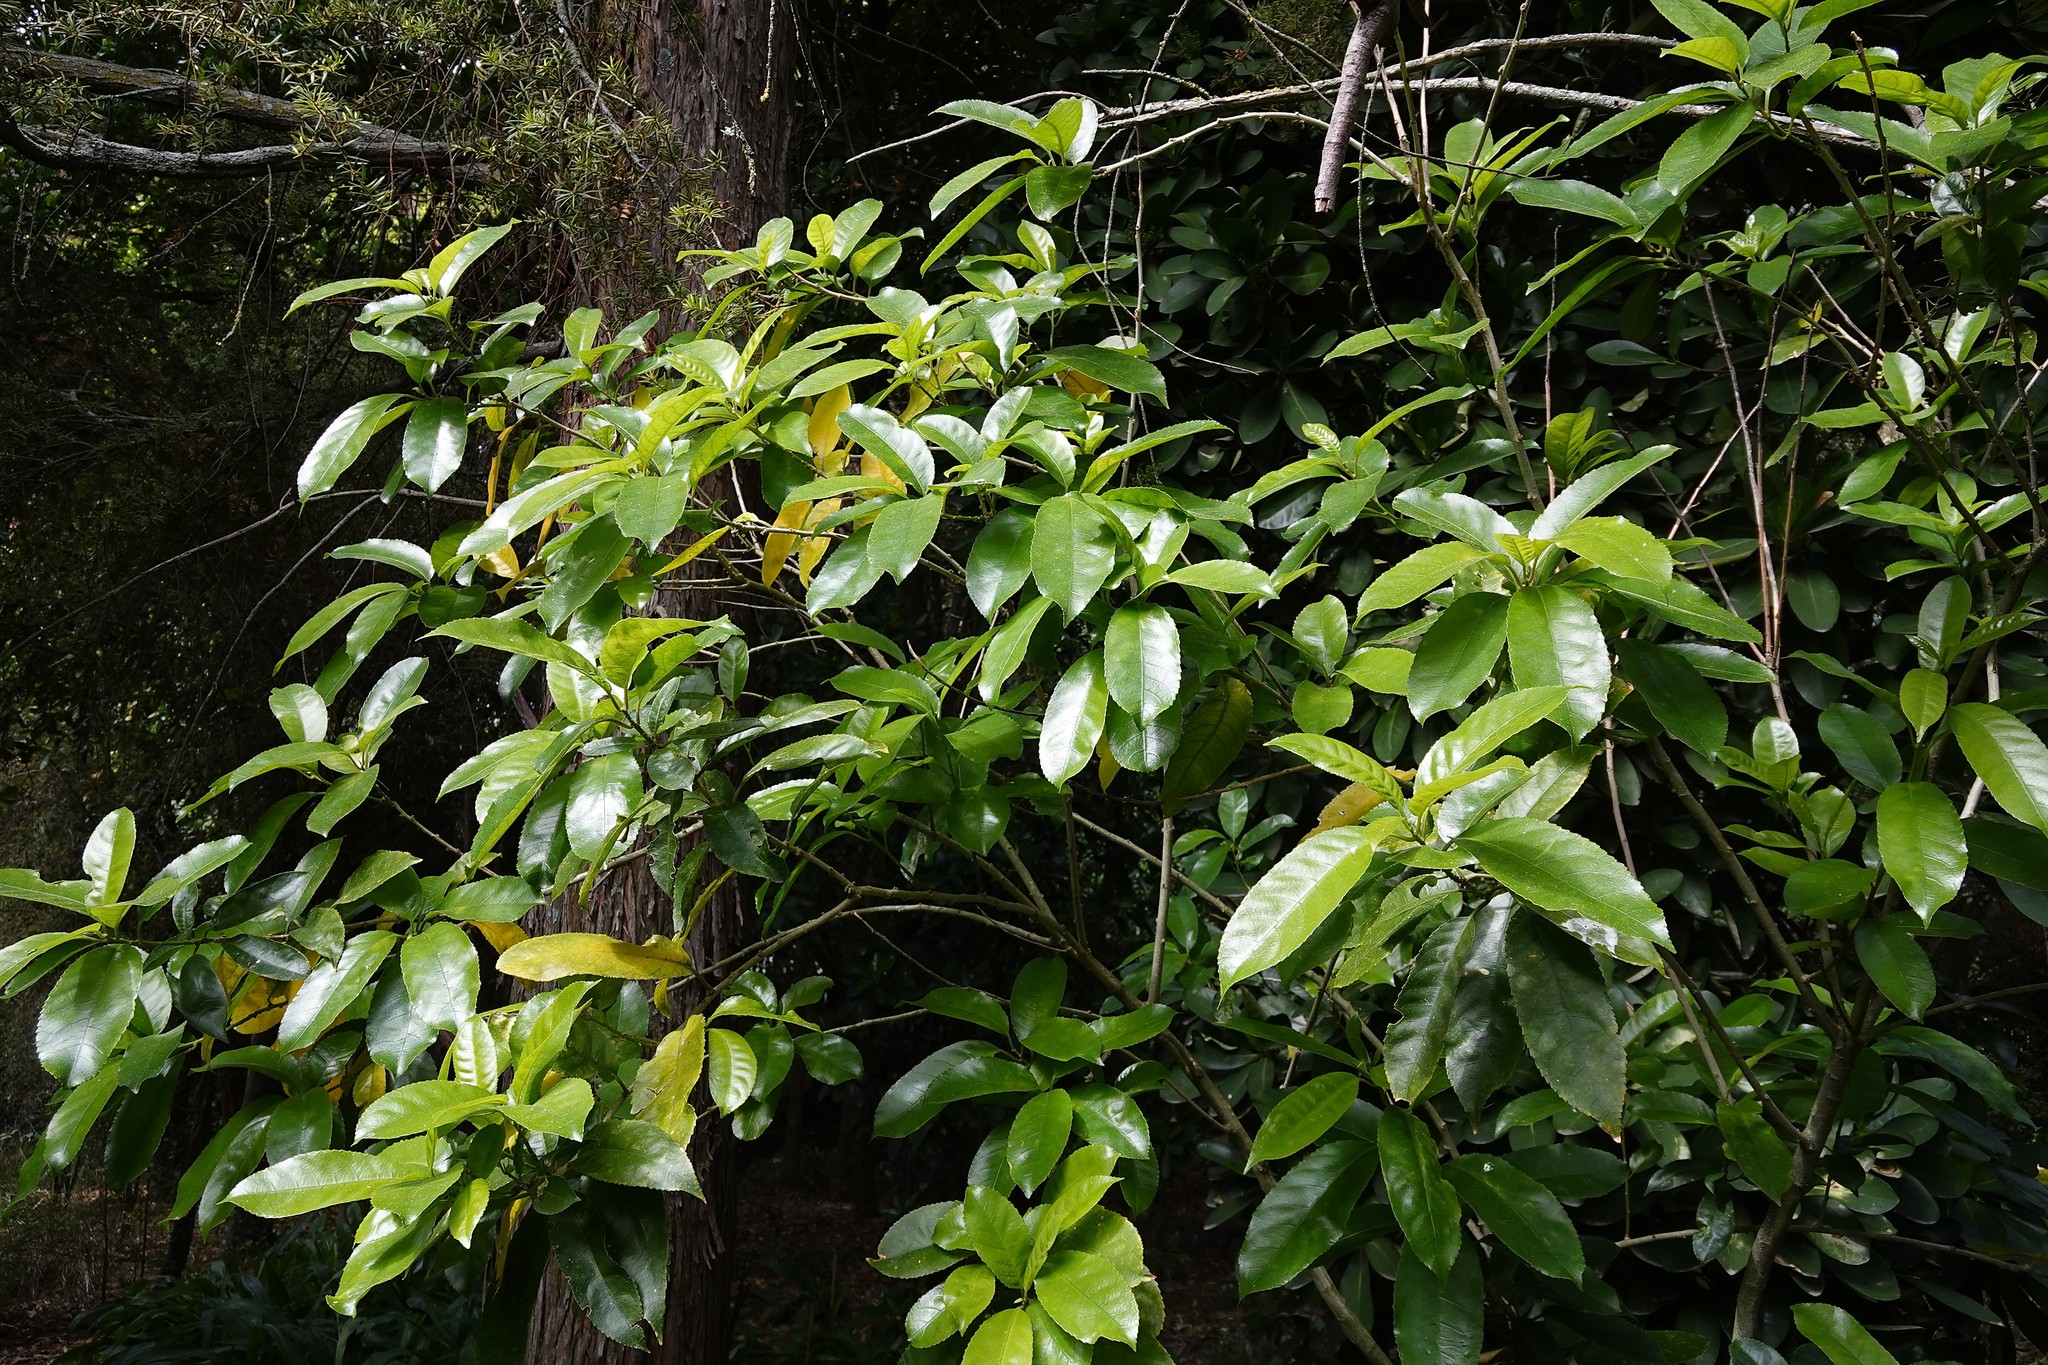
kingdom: Plantae
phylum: Tracheophyta
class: Magnoliopsida
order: Malpighiales
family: Violaceae
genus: Melicytus
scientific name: Melicytus ramiflorus
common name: Mahoe
